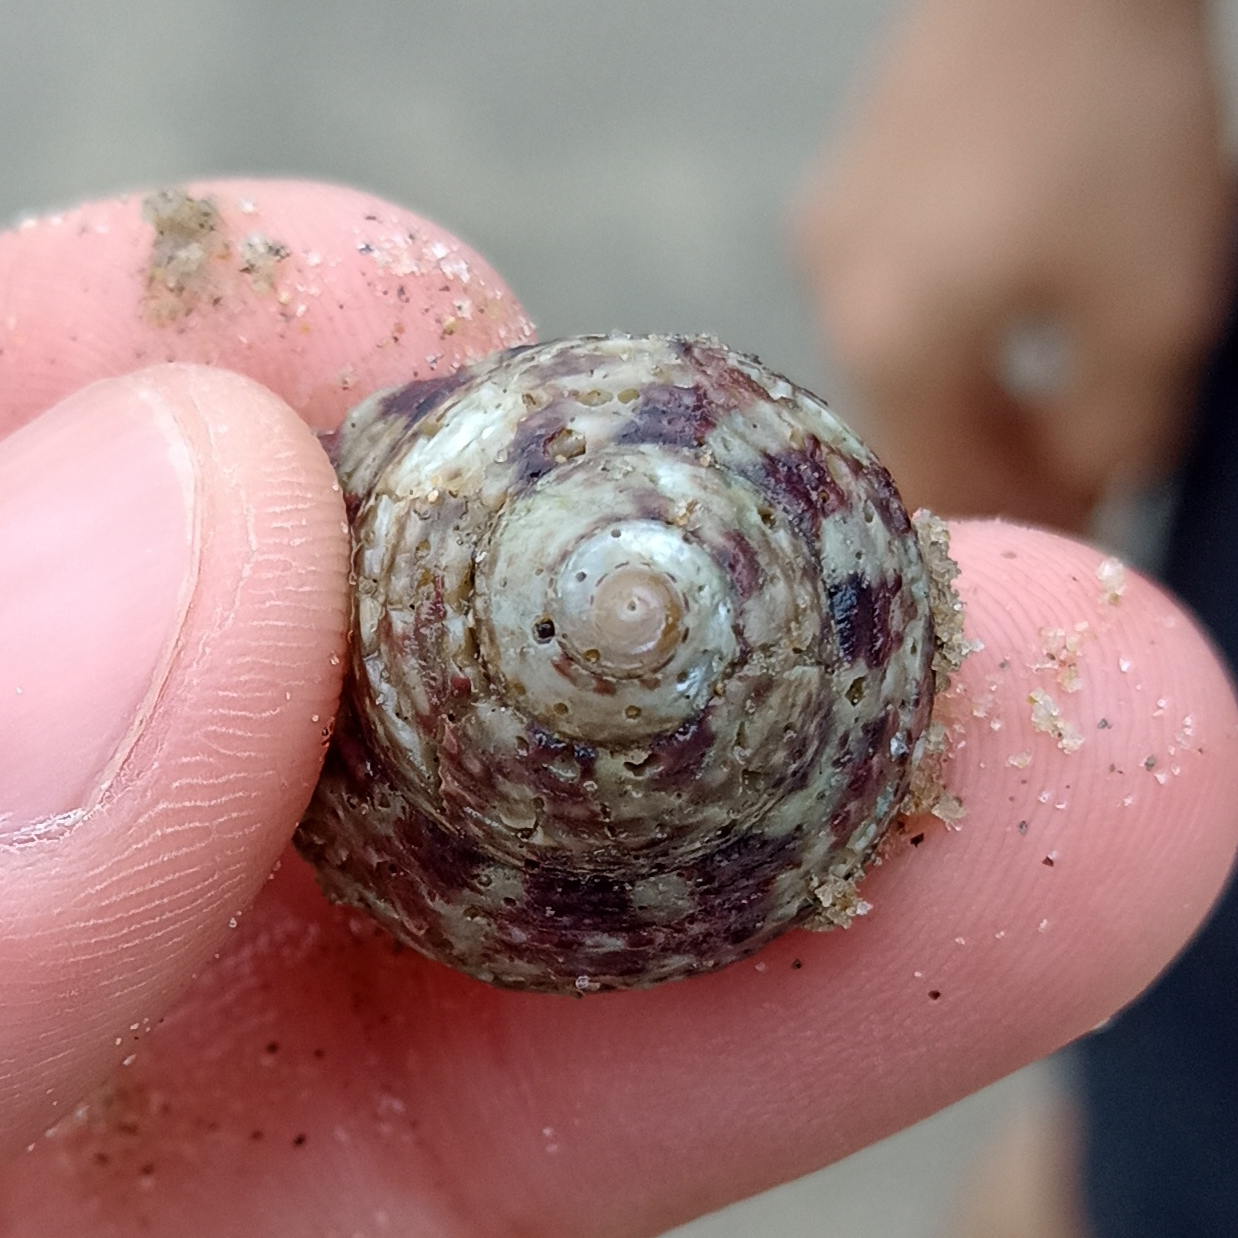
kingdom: Animalia
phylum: Mollusca
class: Gastropoda
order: Trochida
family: Tegulidae
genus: Agathistoma
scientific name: Agathistoma viridulum
